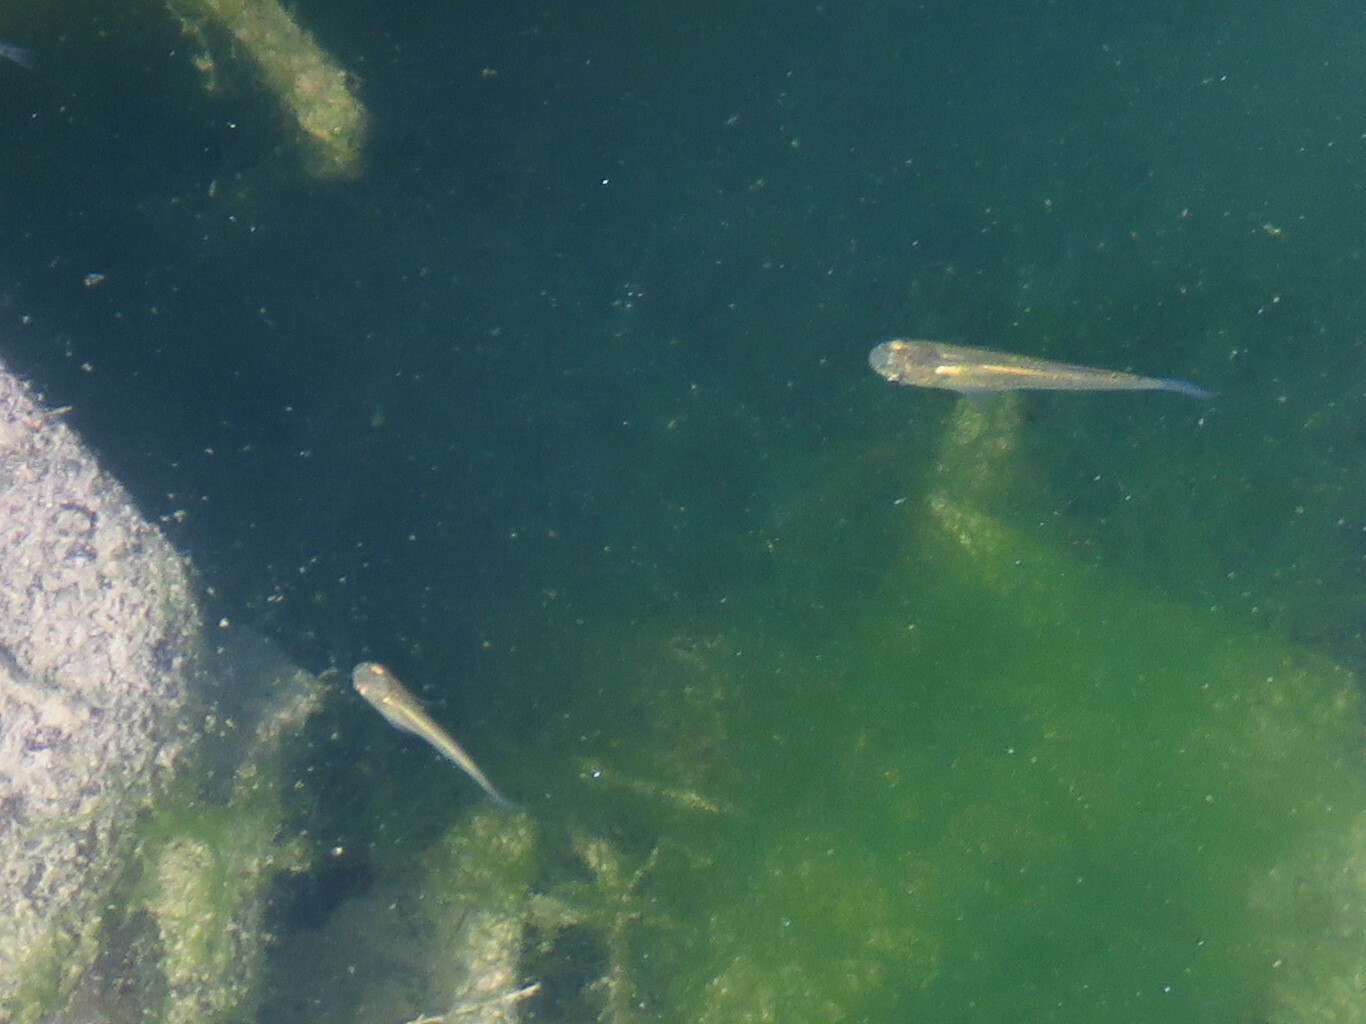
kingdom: Animalia
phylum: Chordata
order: Cyprinodontiformes
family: Poeciliidae
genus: Gambusia
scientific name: Gambusia affinis
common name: Mosquitofish
